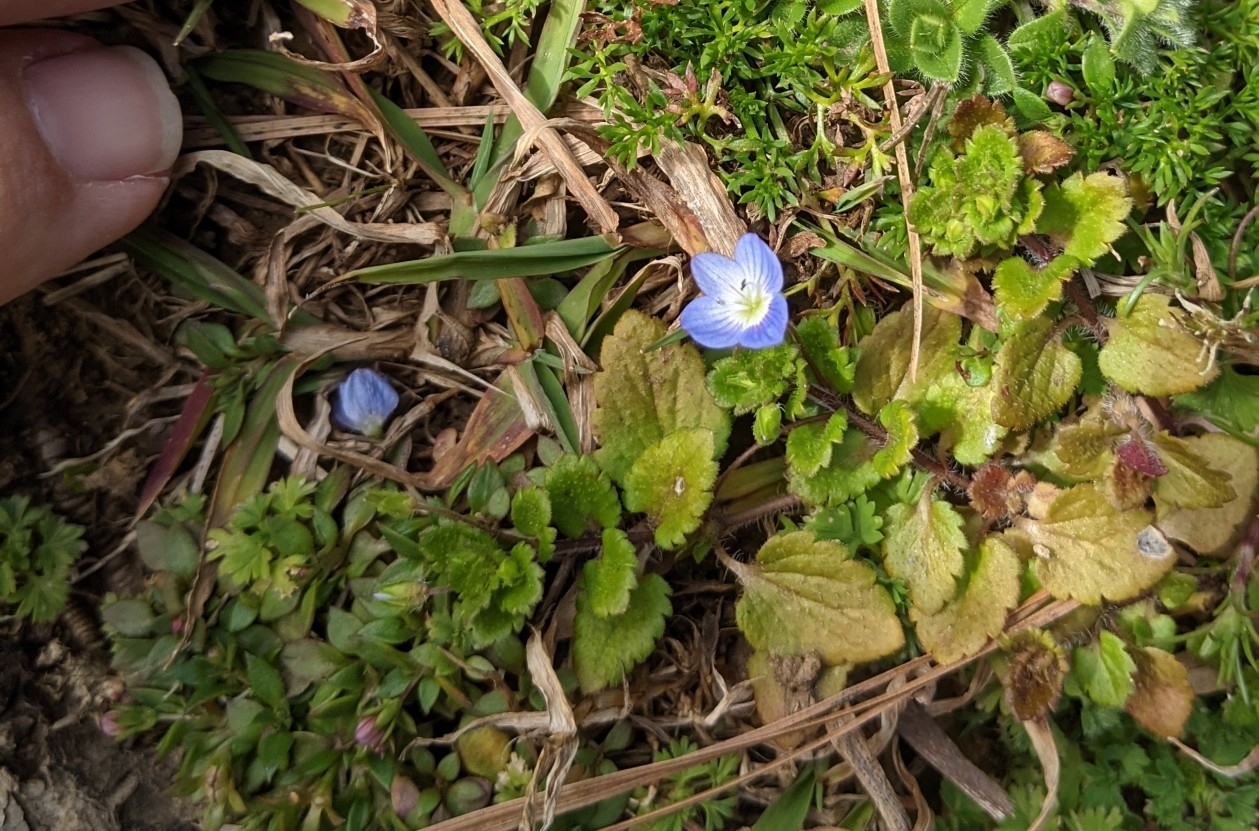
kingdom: Plantae
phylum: Tracheophyta
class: Magnoliopsida
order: Lamiales
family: Plantaginaceae
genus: Veronica
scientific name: Veronica persica
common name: Common field-speedwell
